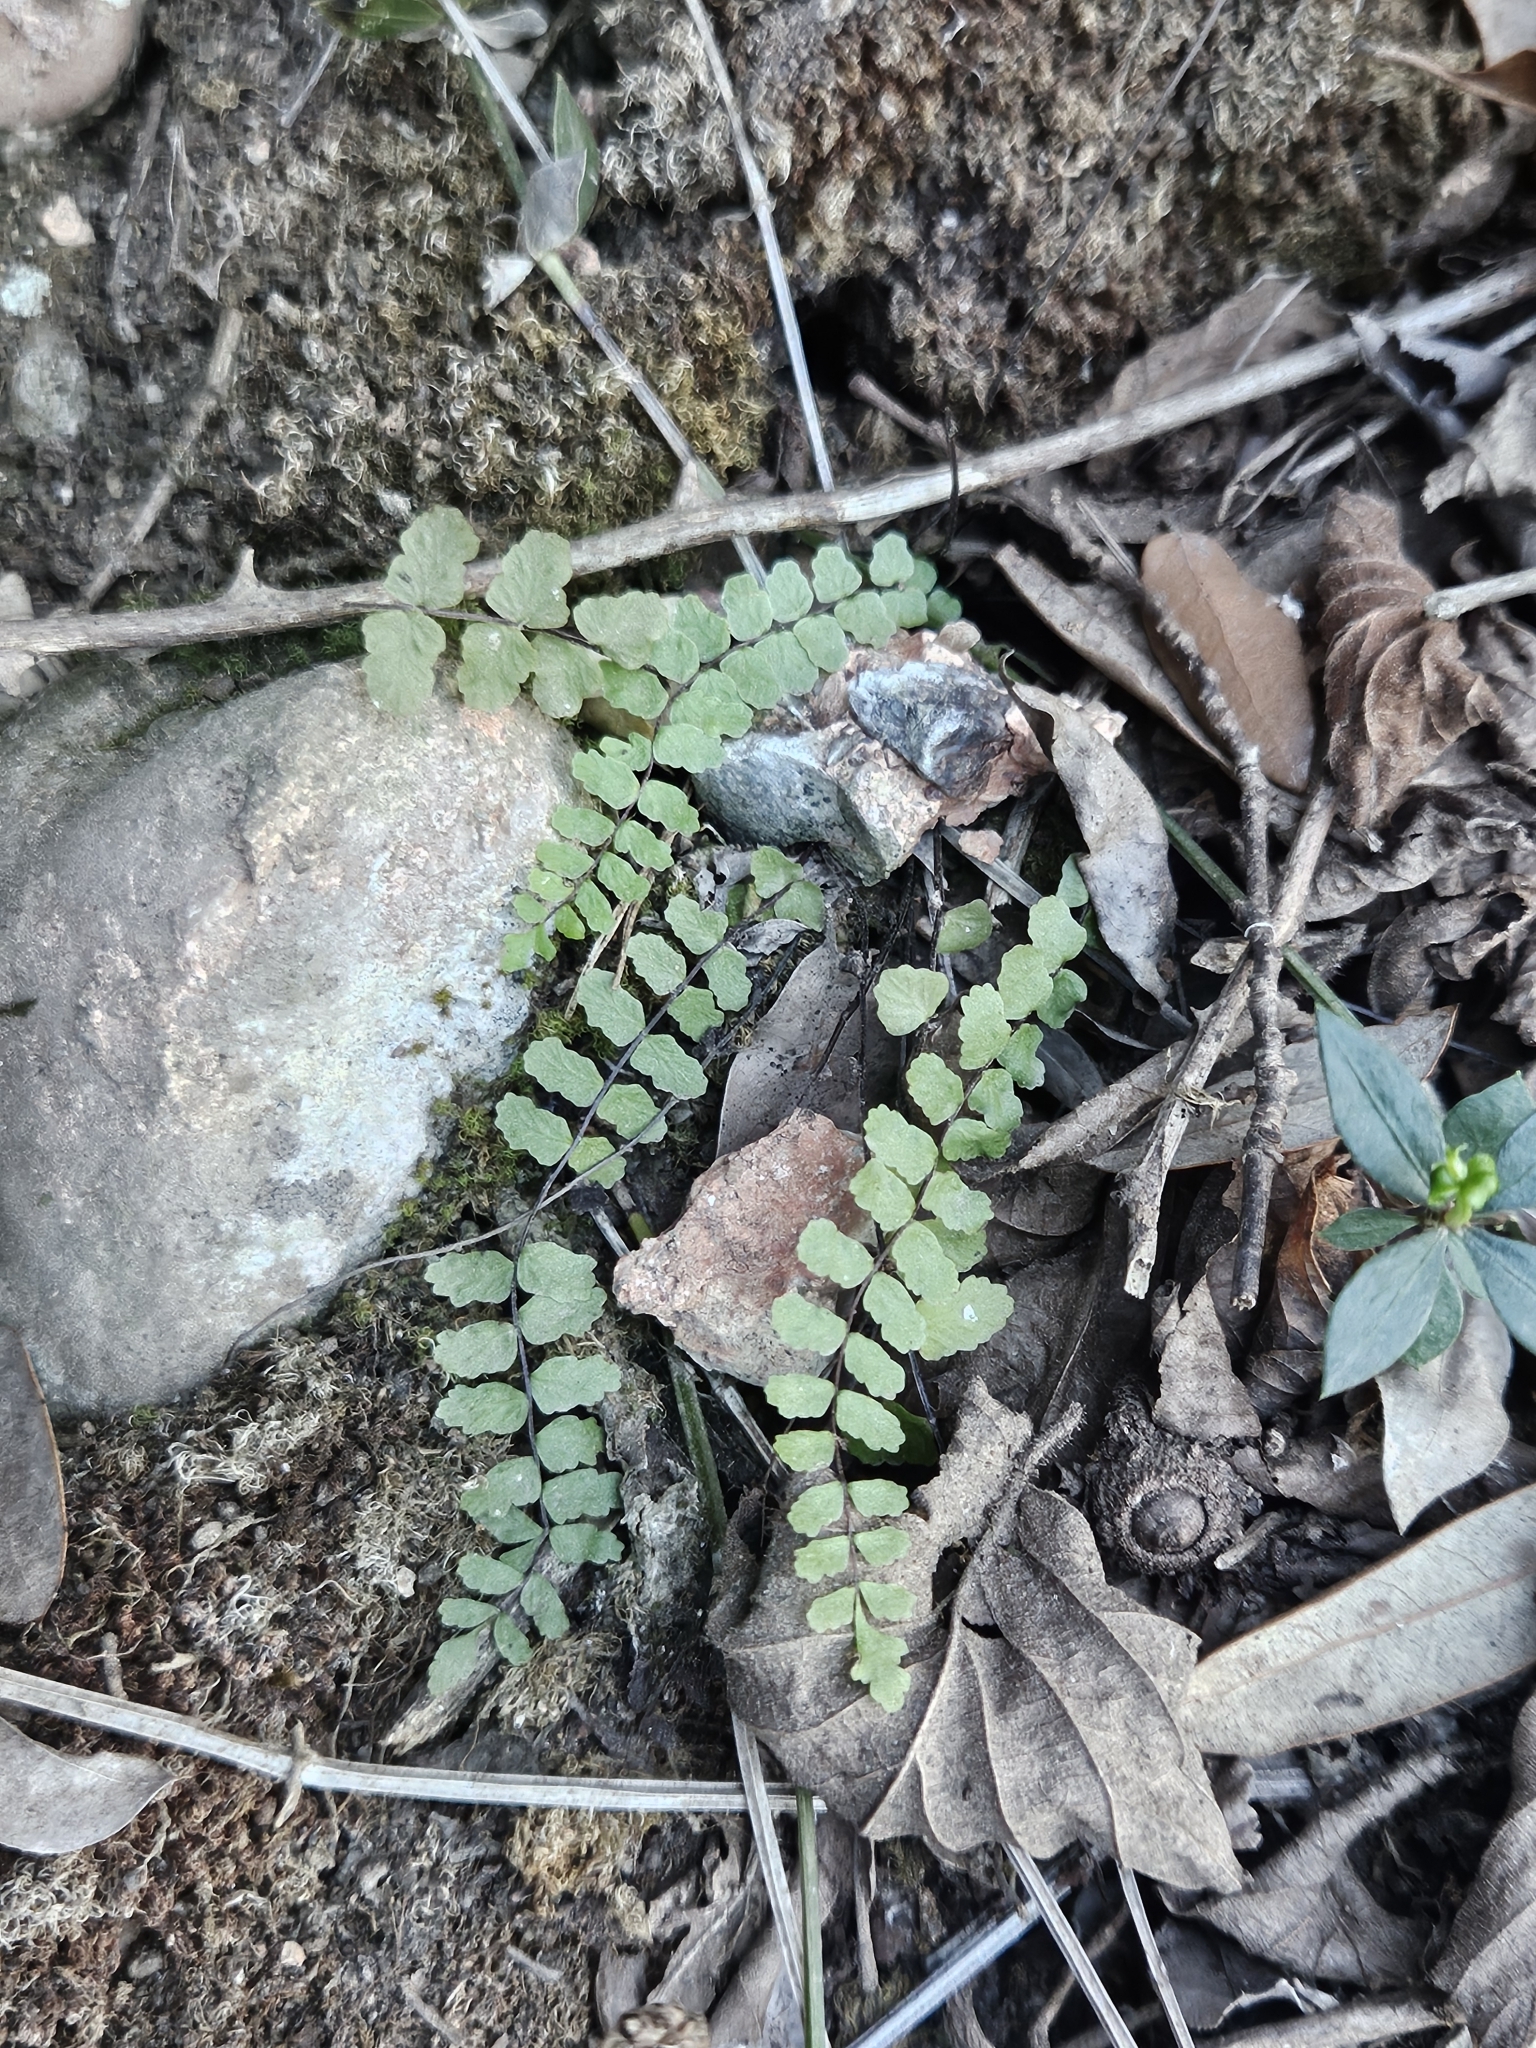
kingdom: Plantae
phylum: Tracheophyta
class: Polypodiopsida
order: Polypodiales
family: Aspleniaceae
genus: Asplenium
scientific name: Asplenium trichomanes
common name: Maidenhair spleenwort
